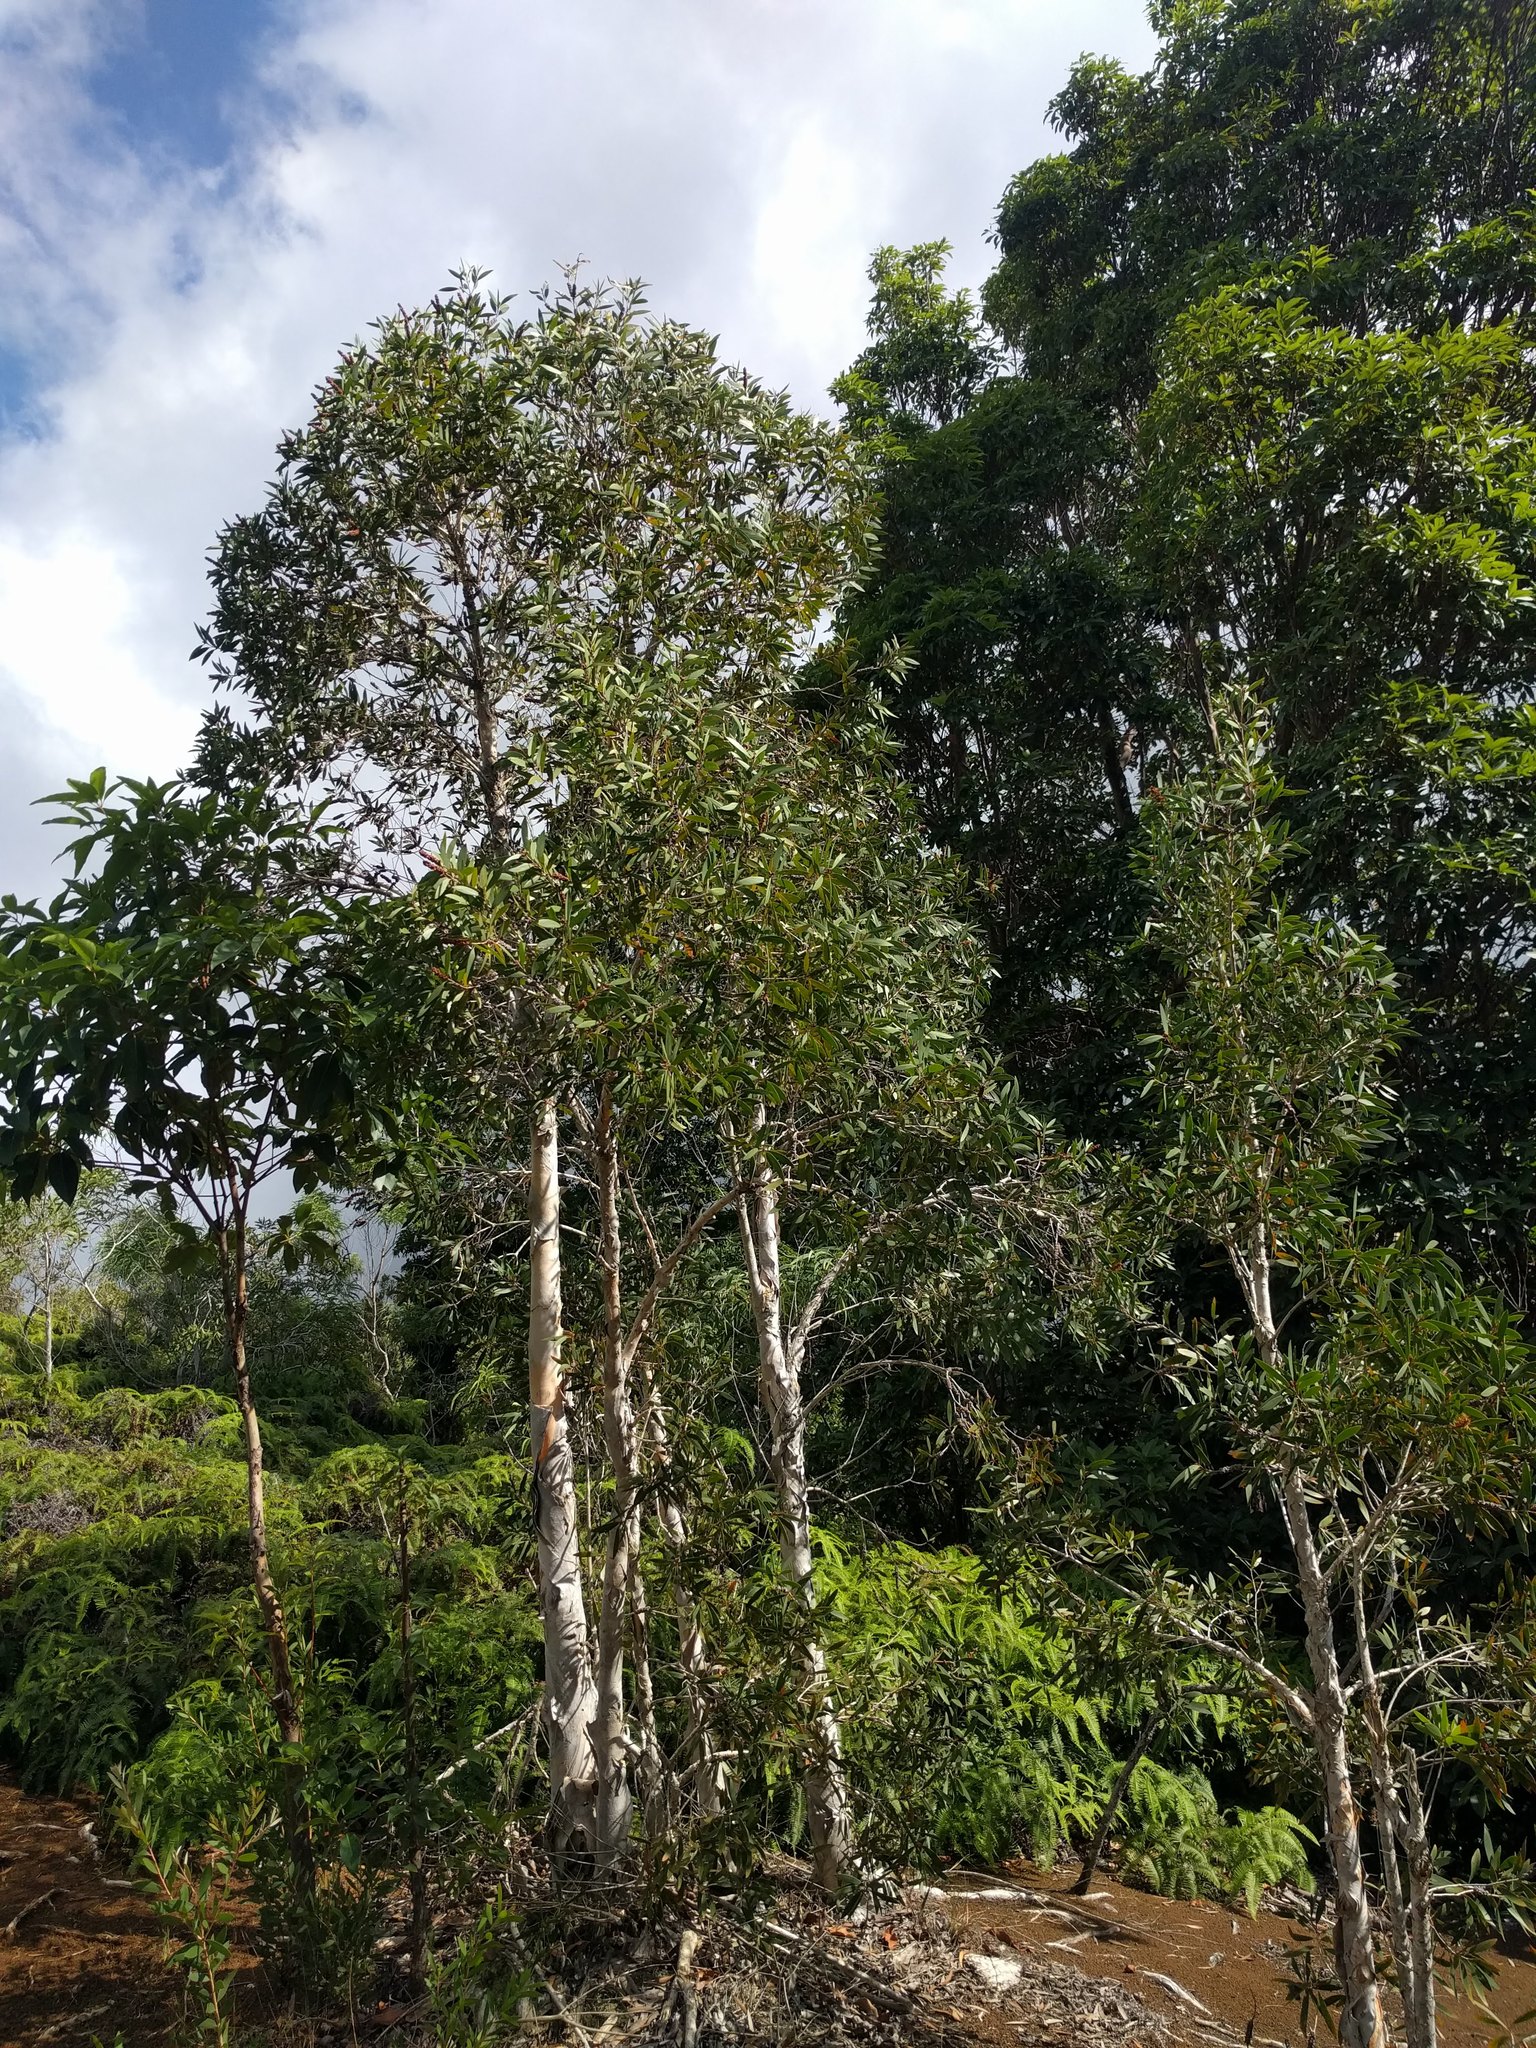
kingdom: Plantae
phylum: Tracheophyta
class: Magnoliopsida
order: Myrtales
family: Myrtaceae
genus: Melaleuca
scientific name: Melaleuca quinquenervia
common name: Punktree
